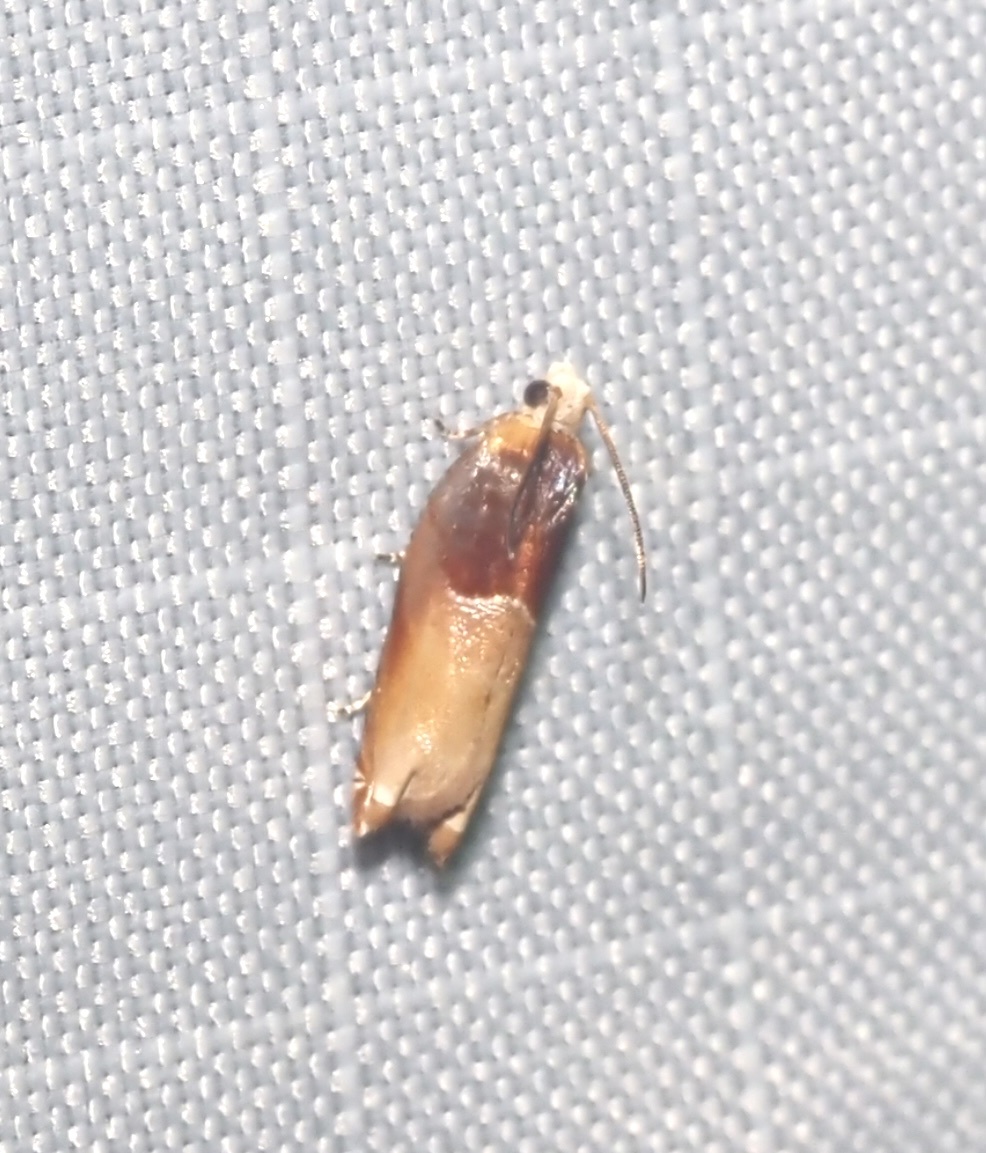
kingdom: Animalia
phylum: Arthropoda
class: Insecta
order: Lepidoptera
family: Tortricidae
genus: Ancylis
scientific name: Ancylis divisana
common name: Two-toned ancylis moth
